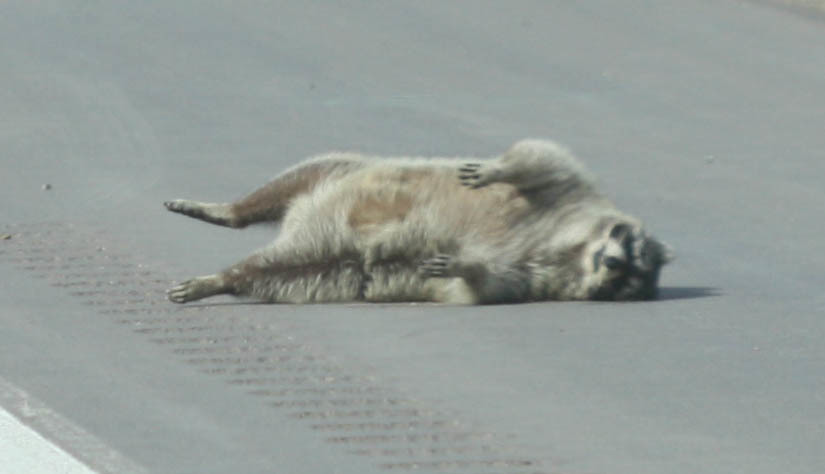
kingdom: Animalia
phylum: Chordata
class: Mammalia
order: Carnivora
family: Procyonidae
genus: Procyon
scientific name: Procyon lotor
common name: Raccoon
